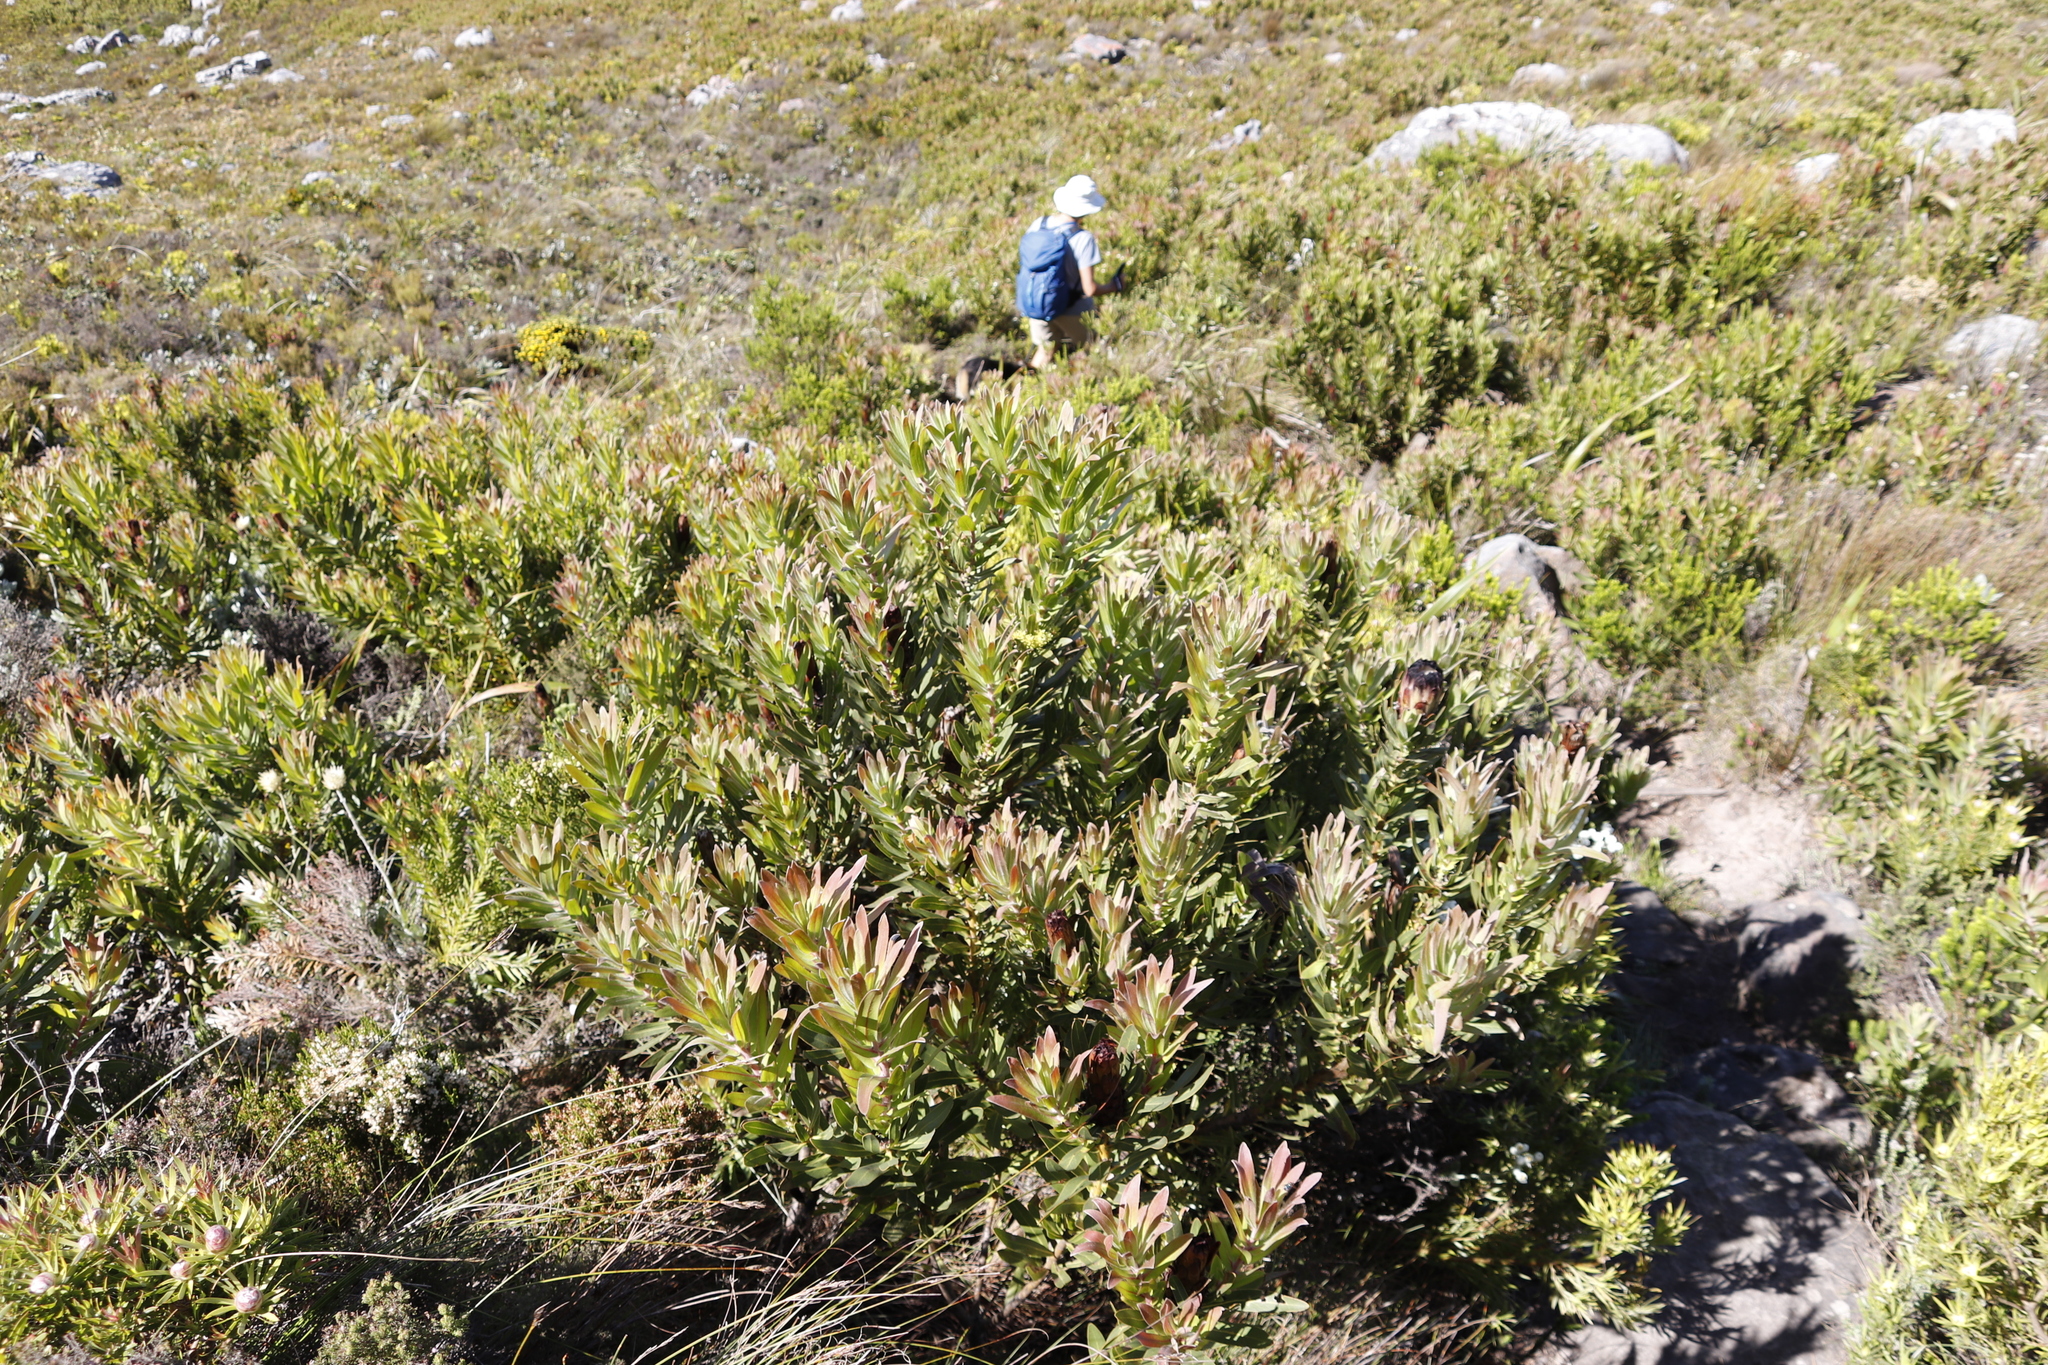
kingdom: Plantae
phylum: Tracheophyta
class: Magnoliopsida
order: Proteales
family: Proteaceae
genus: Protea
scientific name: Protea lepidocarpodendron
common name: Black-bearded protea
